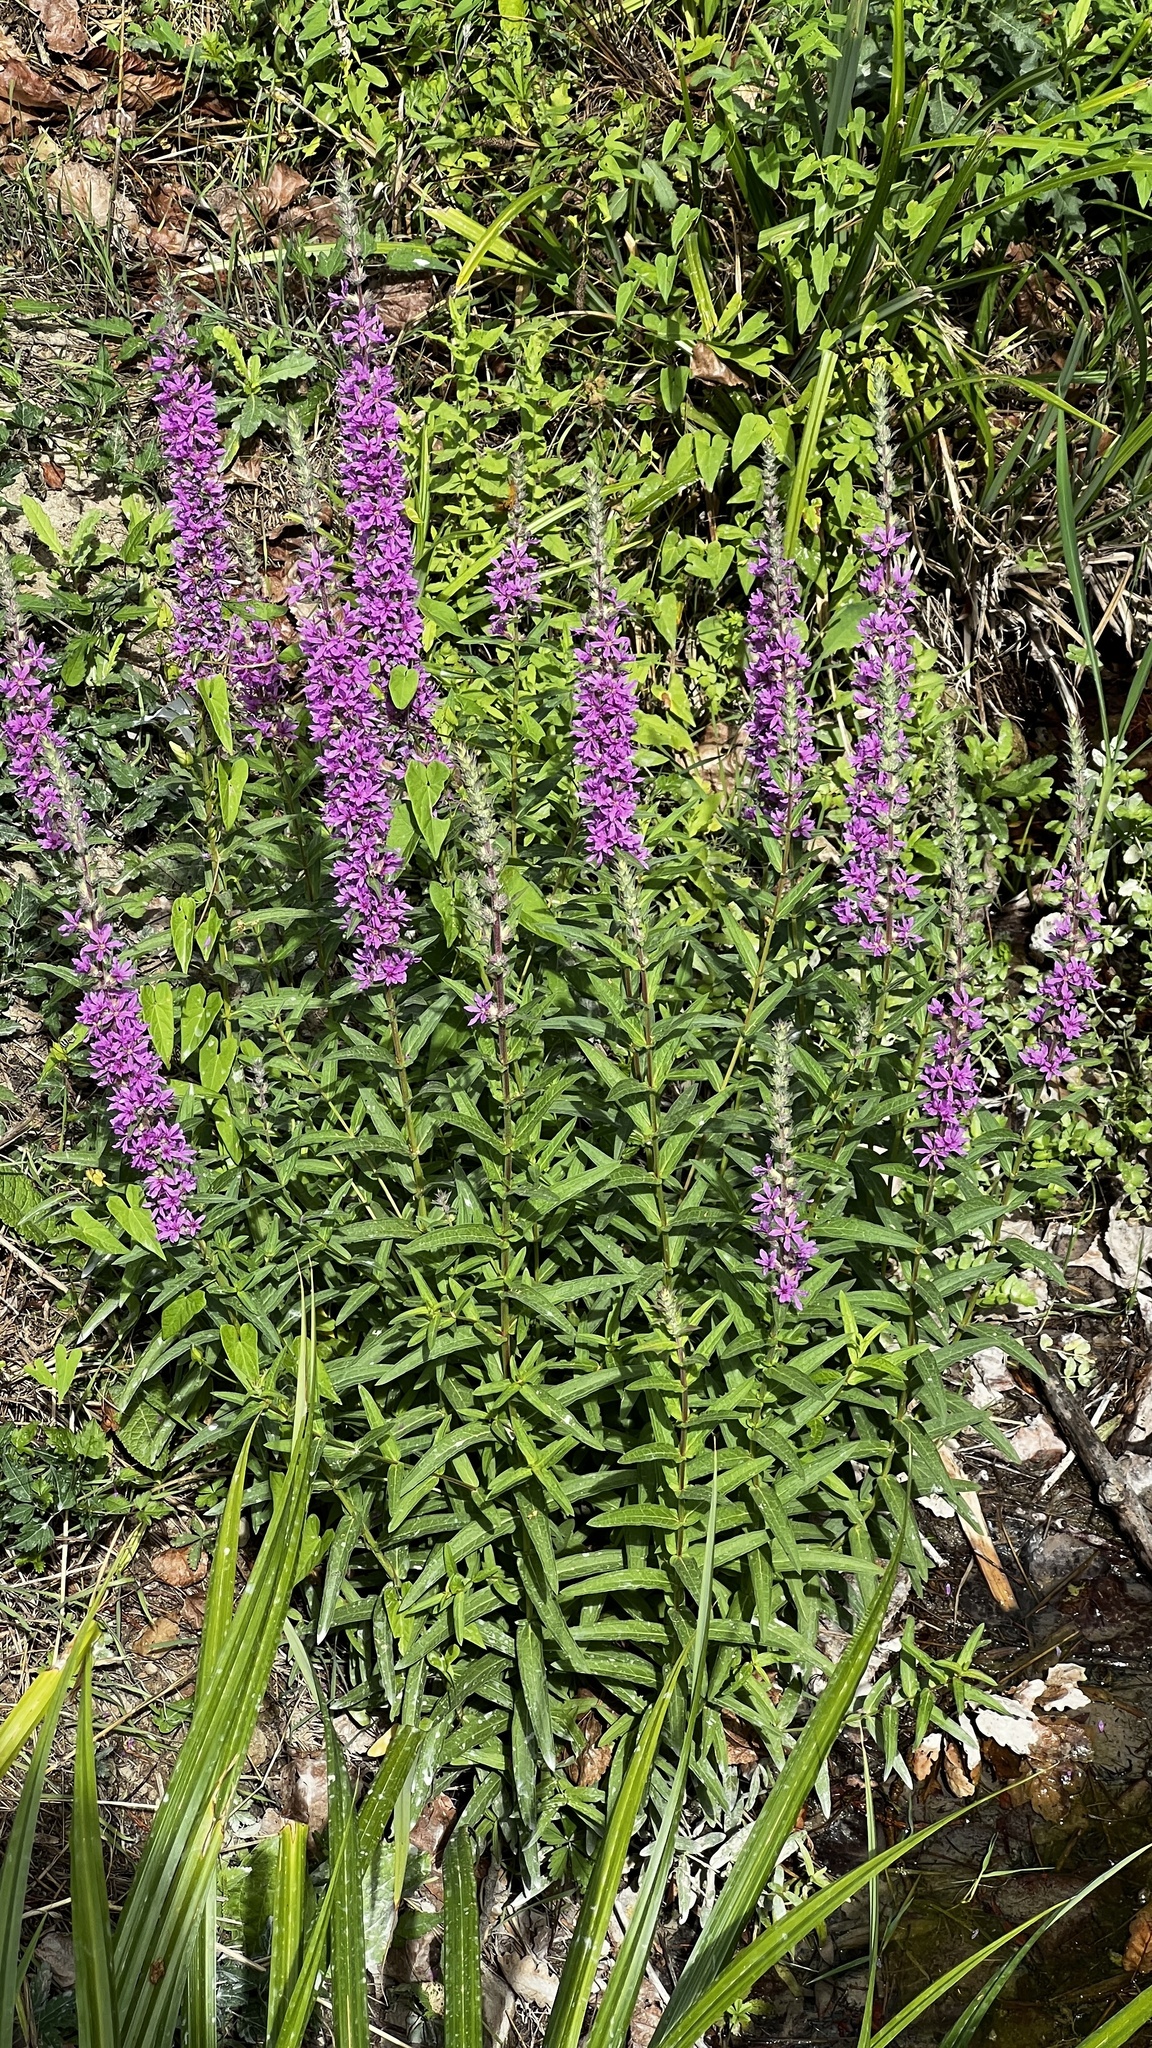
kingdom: Plantae
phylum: Tracheophyta
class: Magnoliopsida
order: Myrtales
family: Lythraceae
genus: Lythrum
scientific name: Lythrum salicaria
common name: Purple loosestrife
